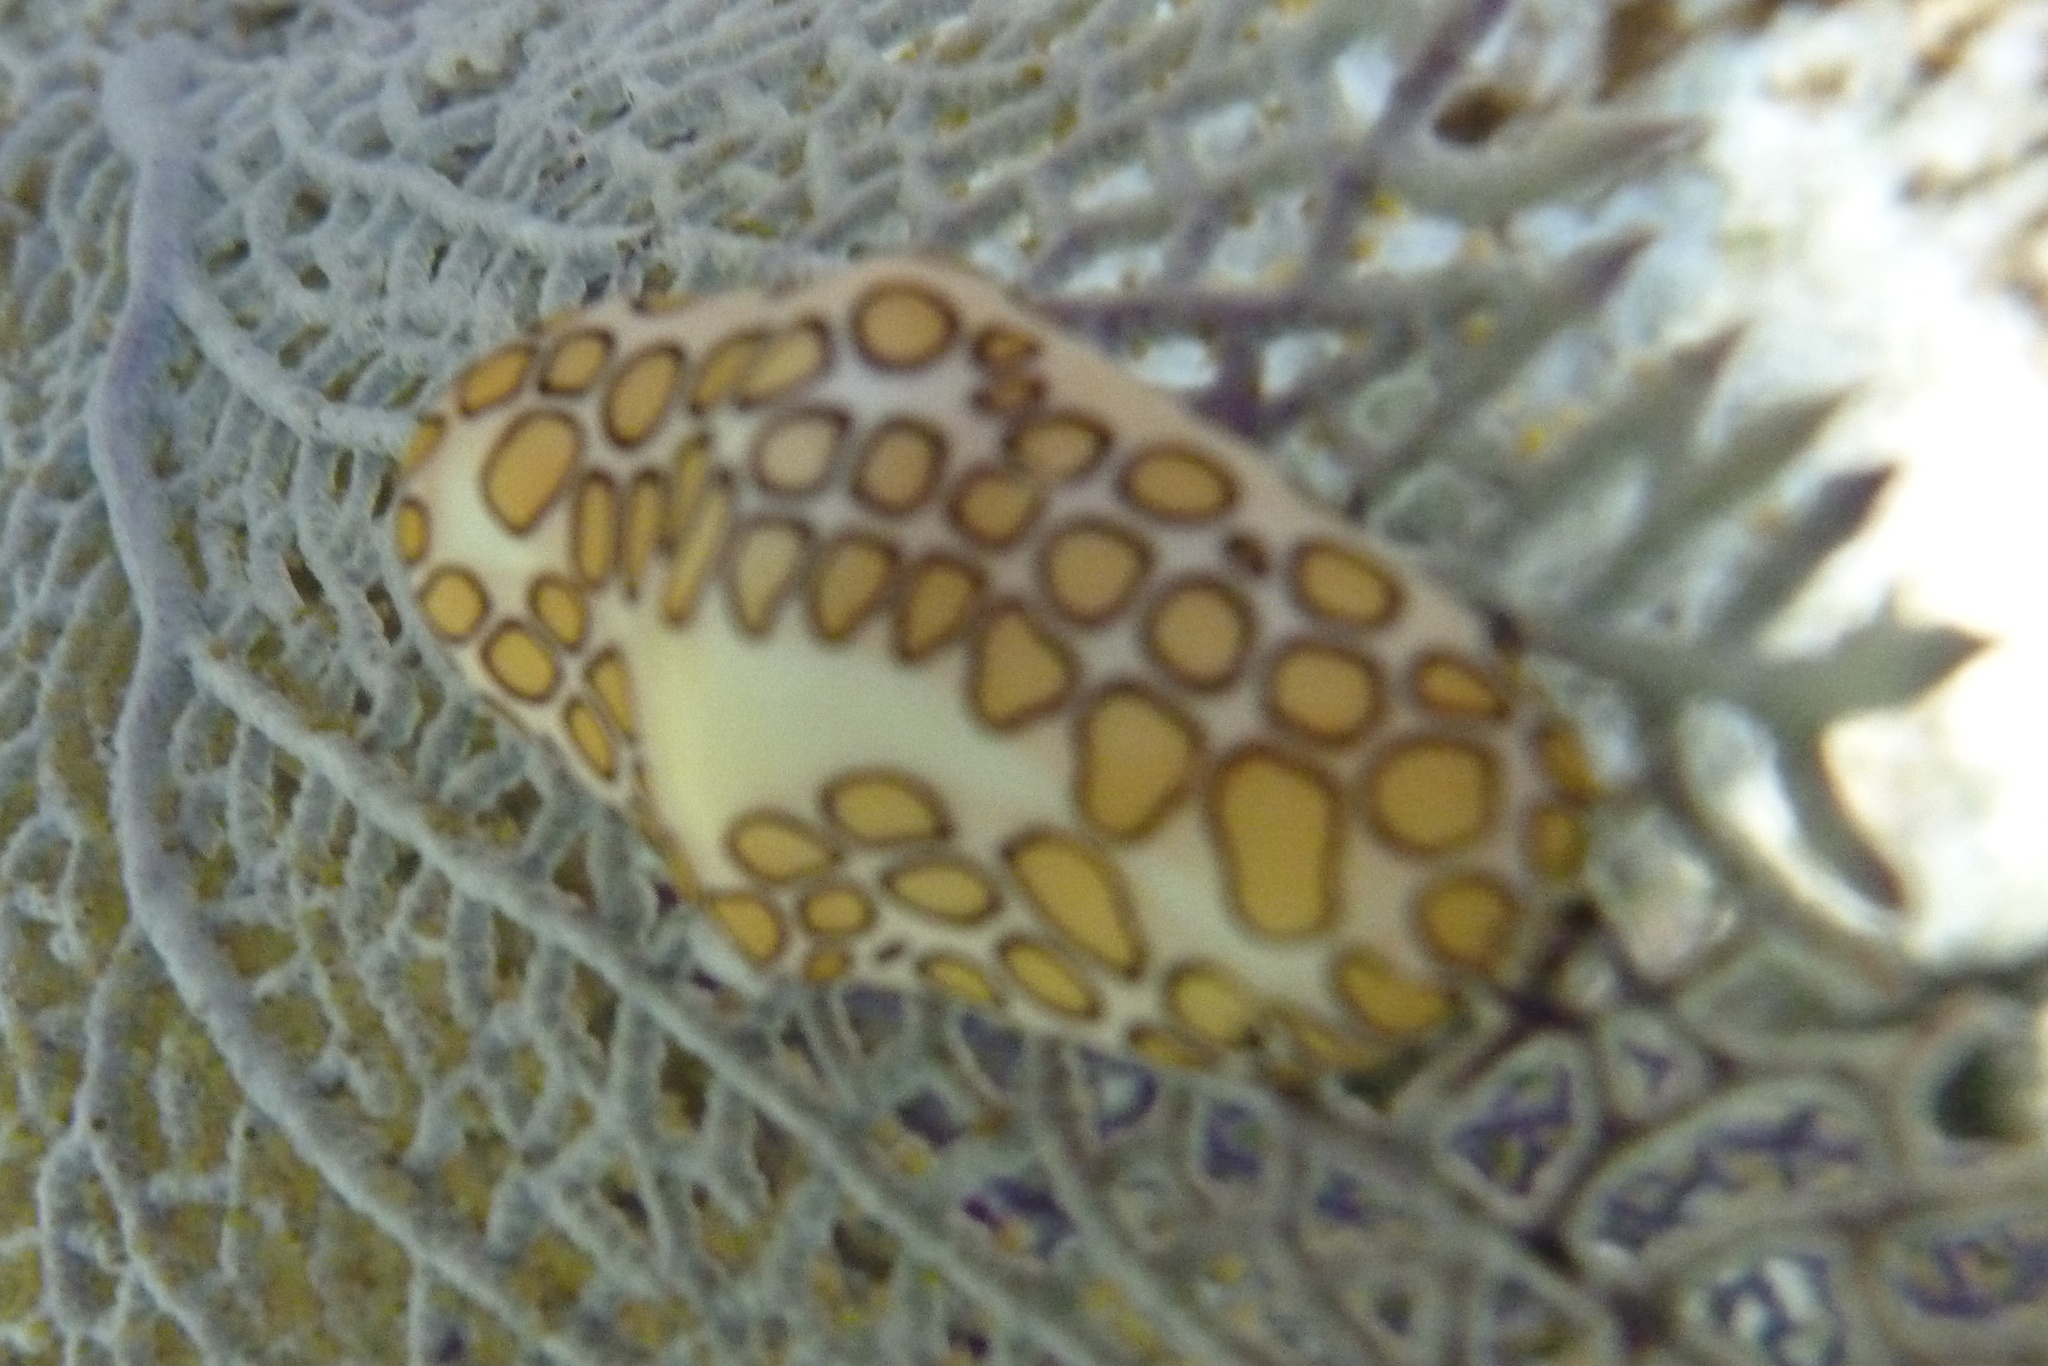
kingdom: Animalia
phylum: Mollusca
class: Gastropoda
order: Littorinimorpha
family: Ovulidae
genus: Cyphoma
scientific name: Cyphoma gibbosum
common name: Flamingo tongue
